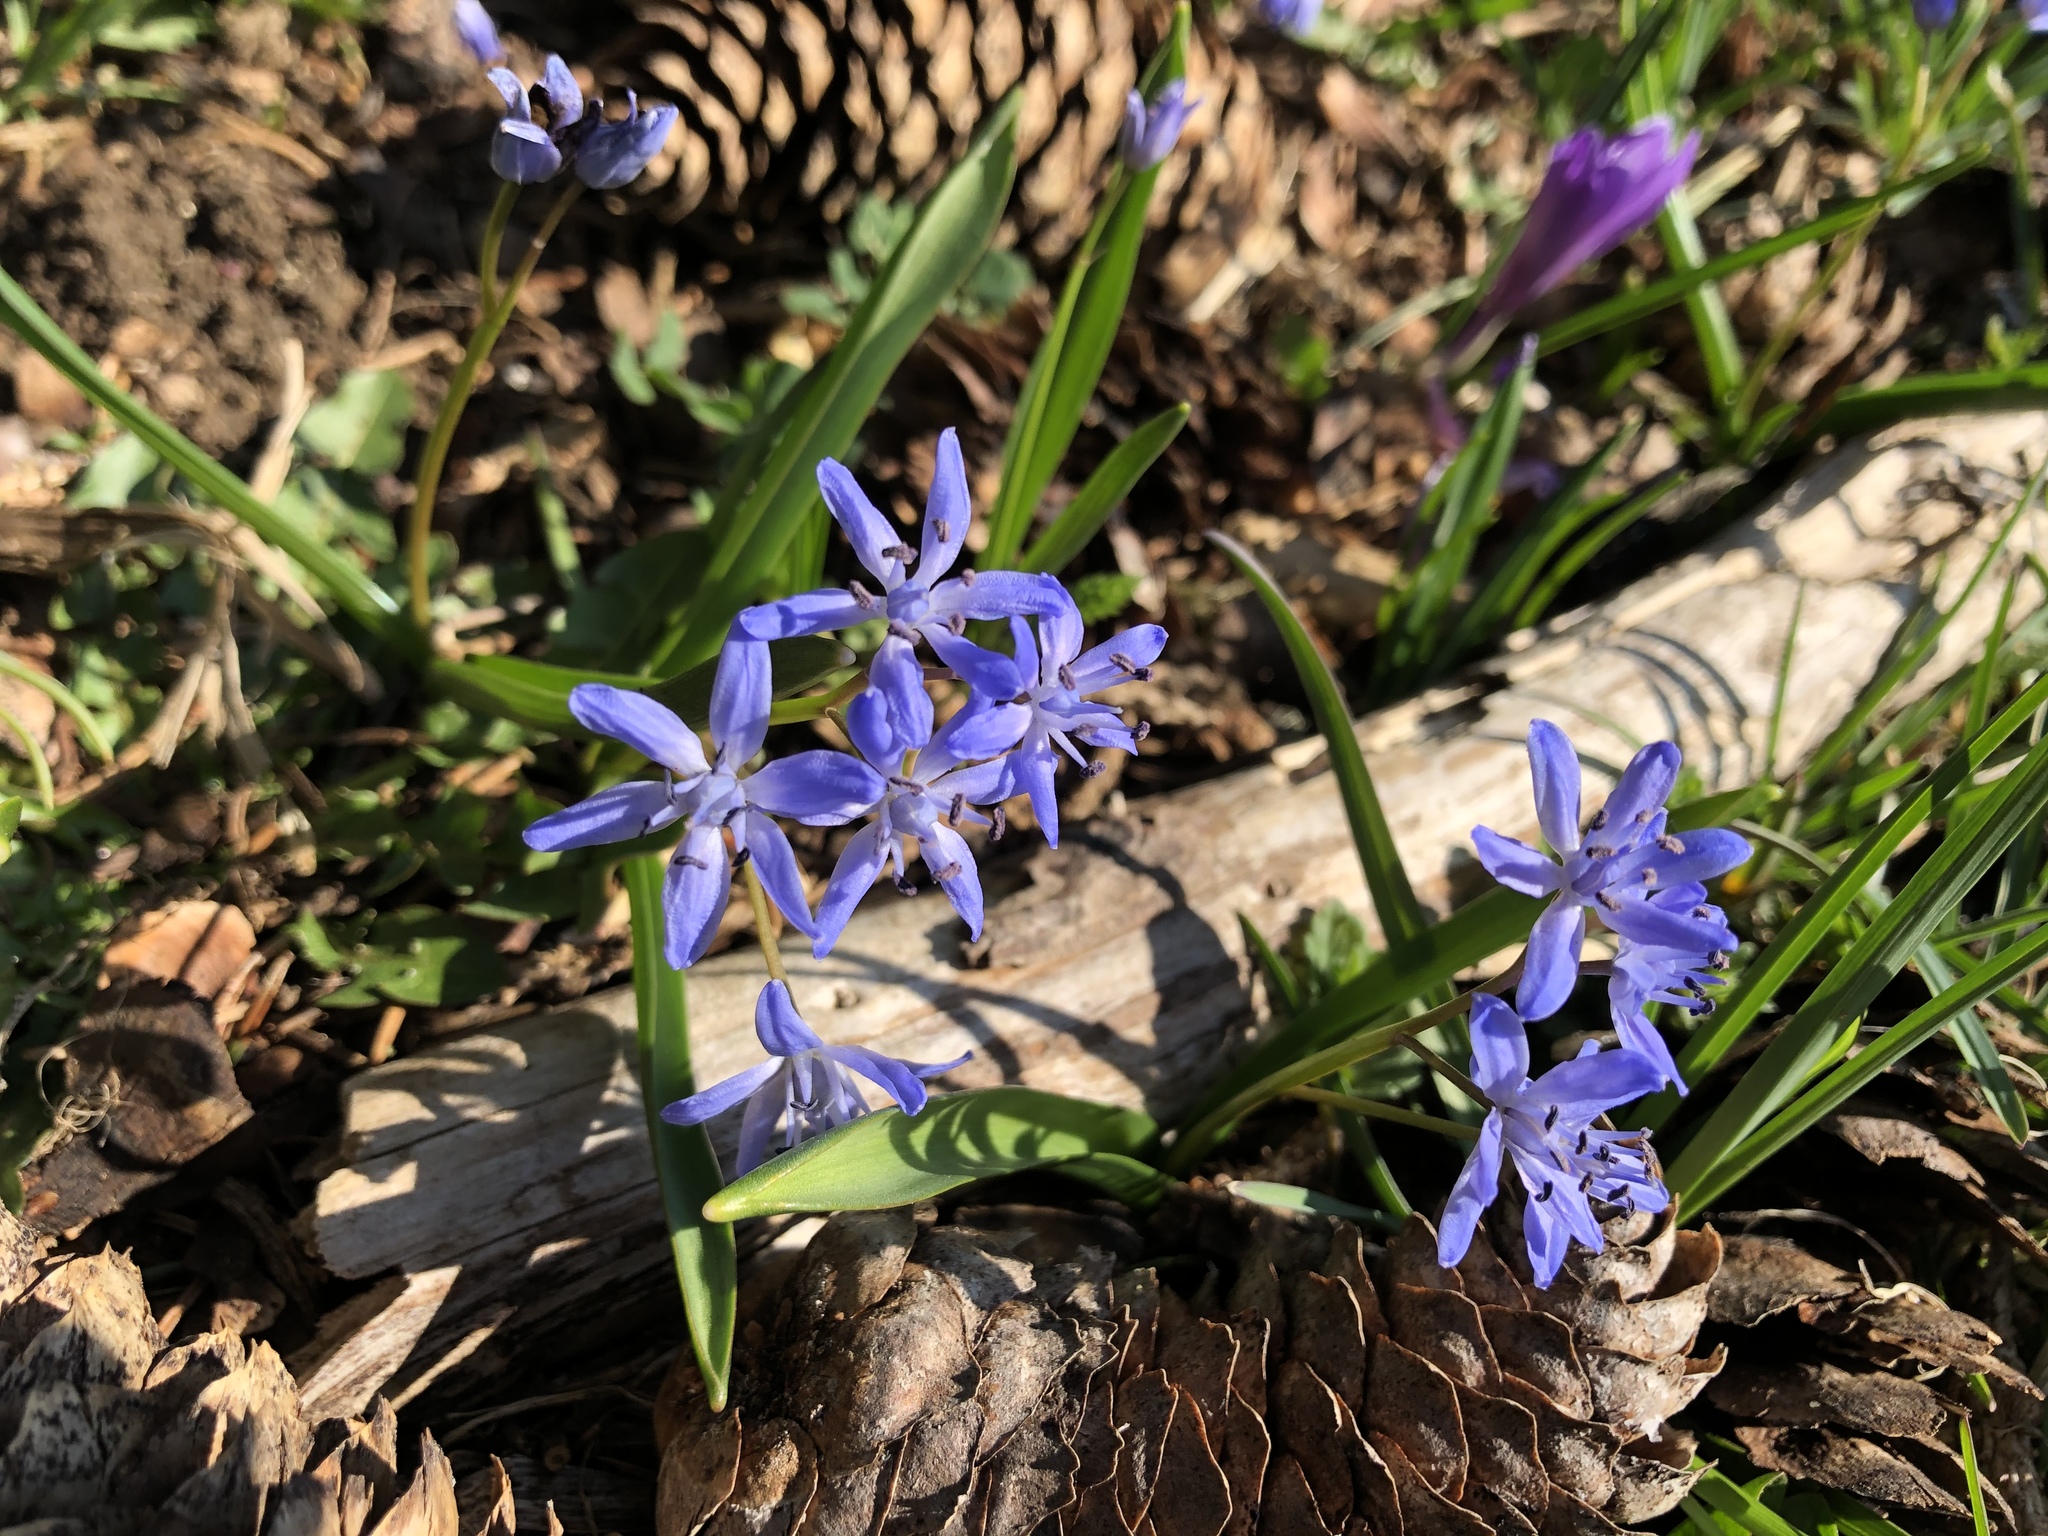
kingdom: Plantae
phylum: Tracheophyta
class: Liliopsida
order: Asparagales
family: Asparagaceae
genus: Scilla
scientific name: Scilla bifolia
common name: Alpine squill
